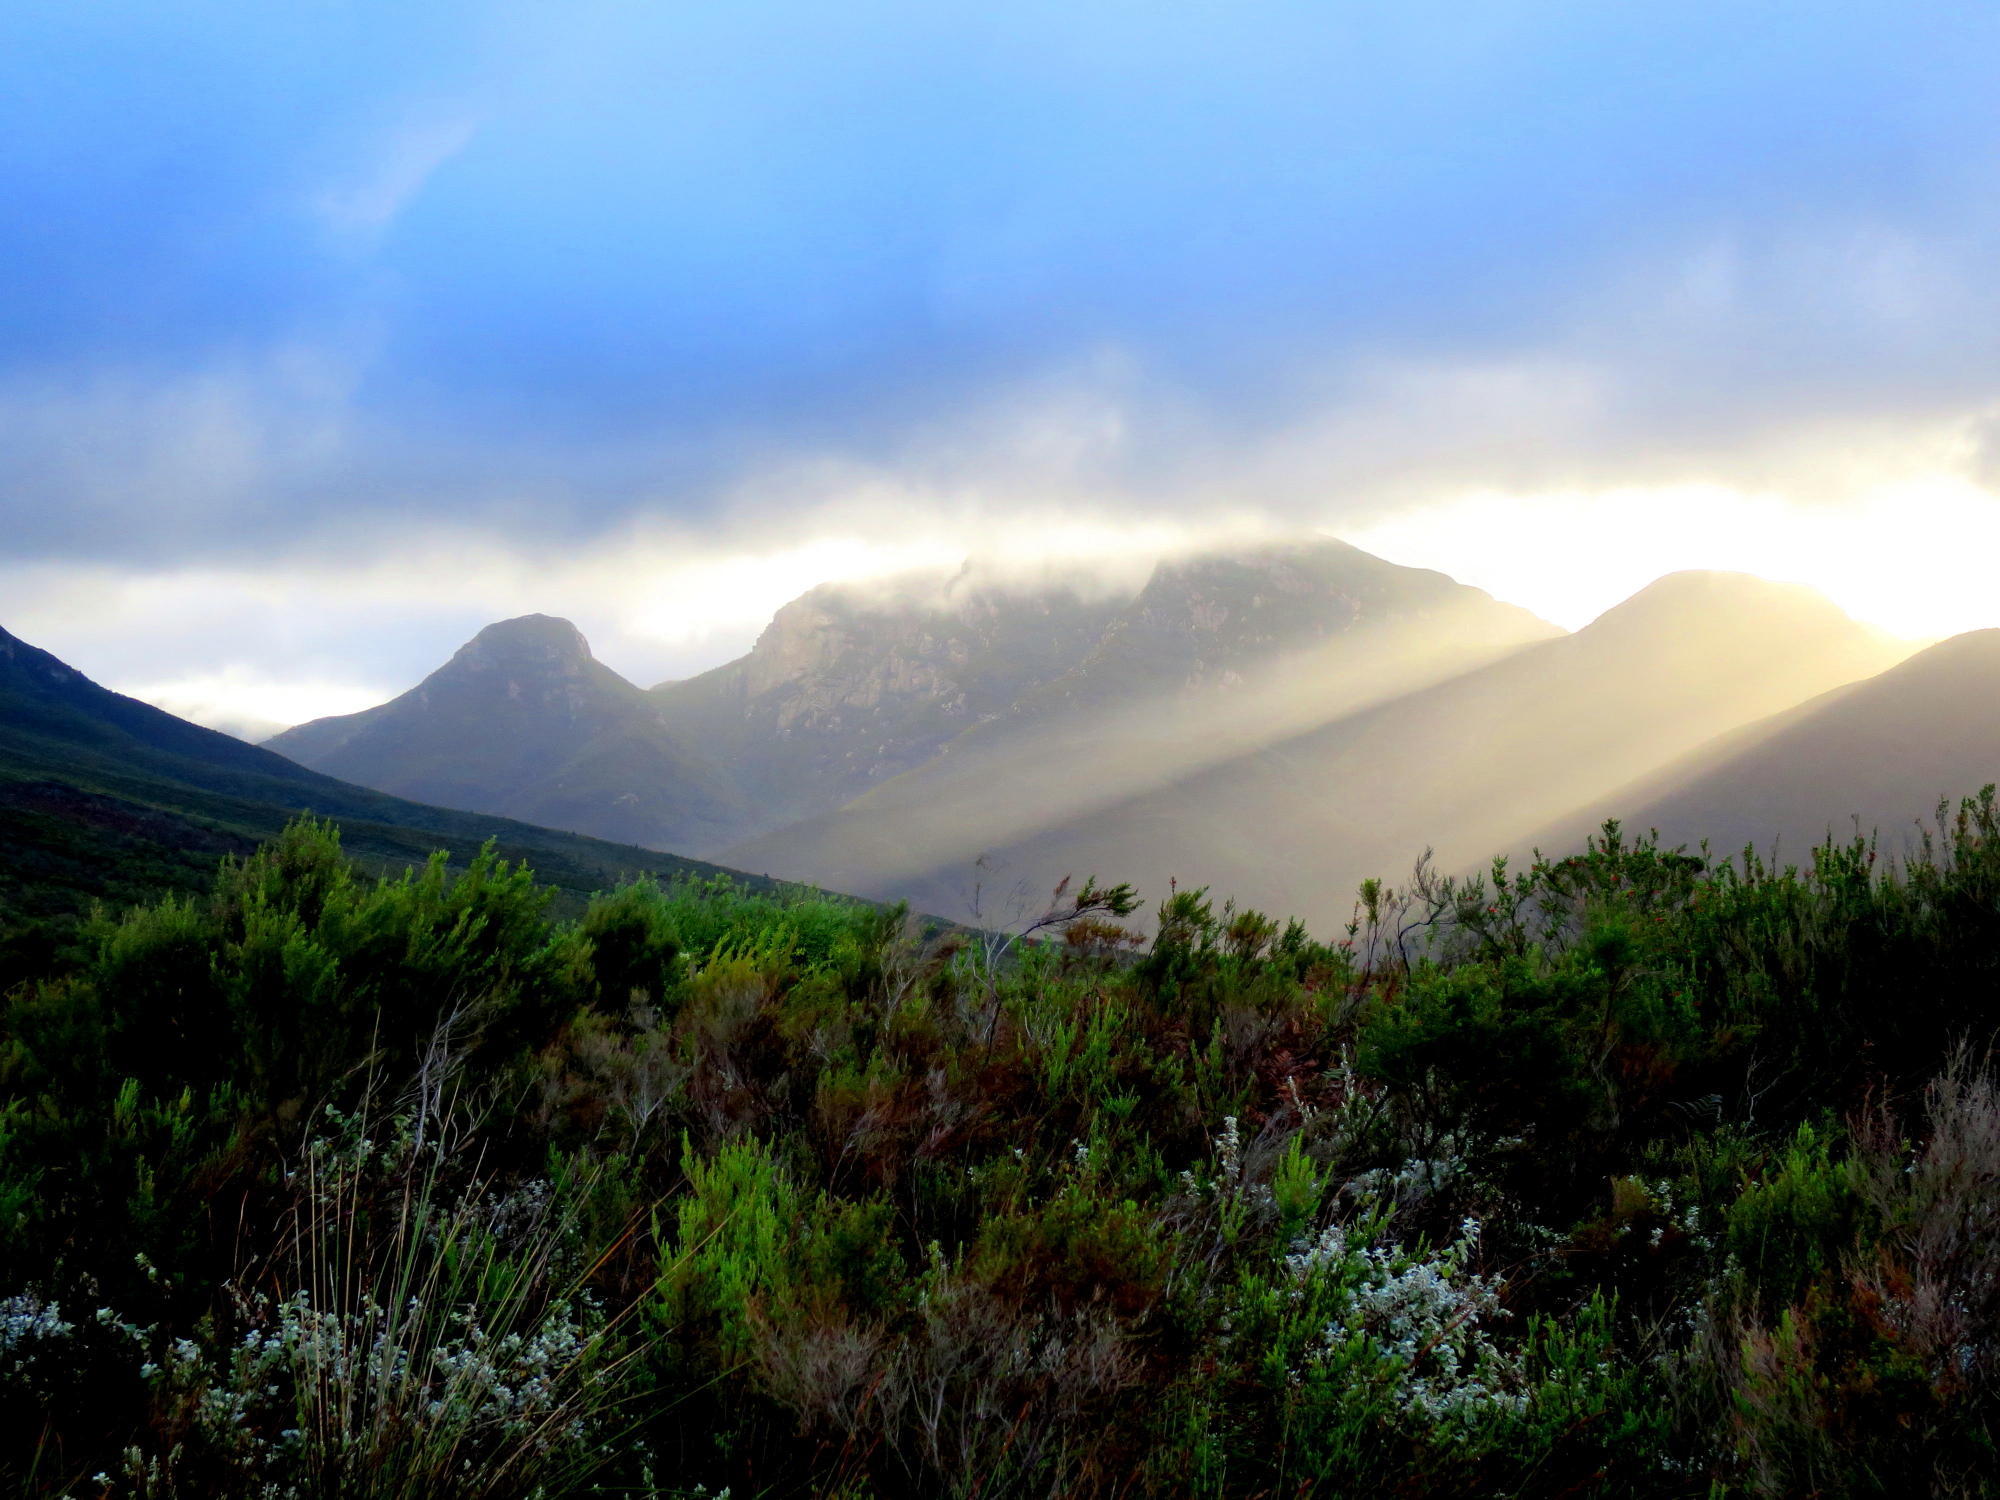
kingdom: Plantae
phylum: Tracheophyta
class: Magnoliopsida
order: Asterales
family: Asteraceae
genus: Helichrysum
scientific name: Helichrysum petiolare
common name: Licorice-plant
